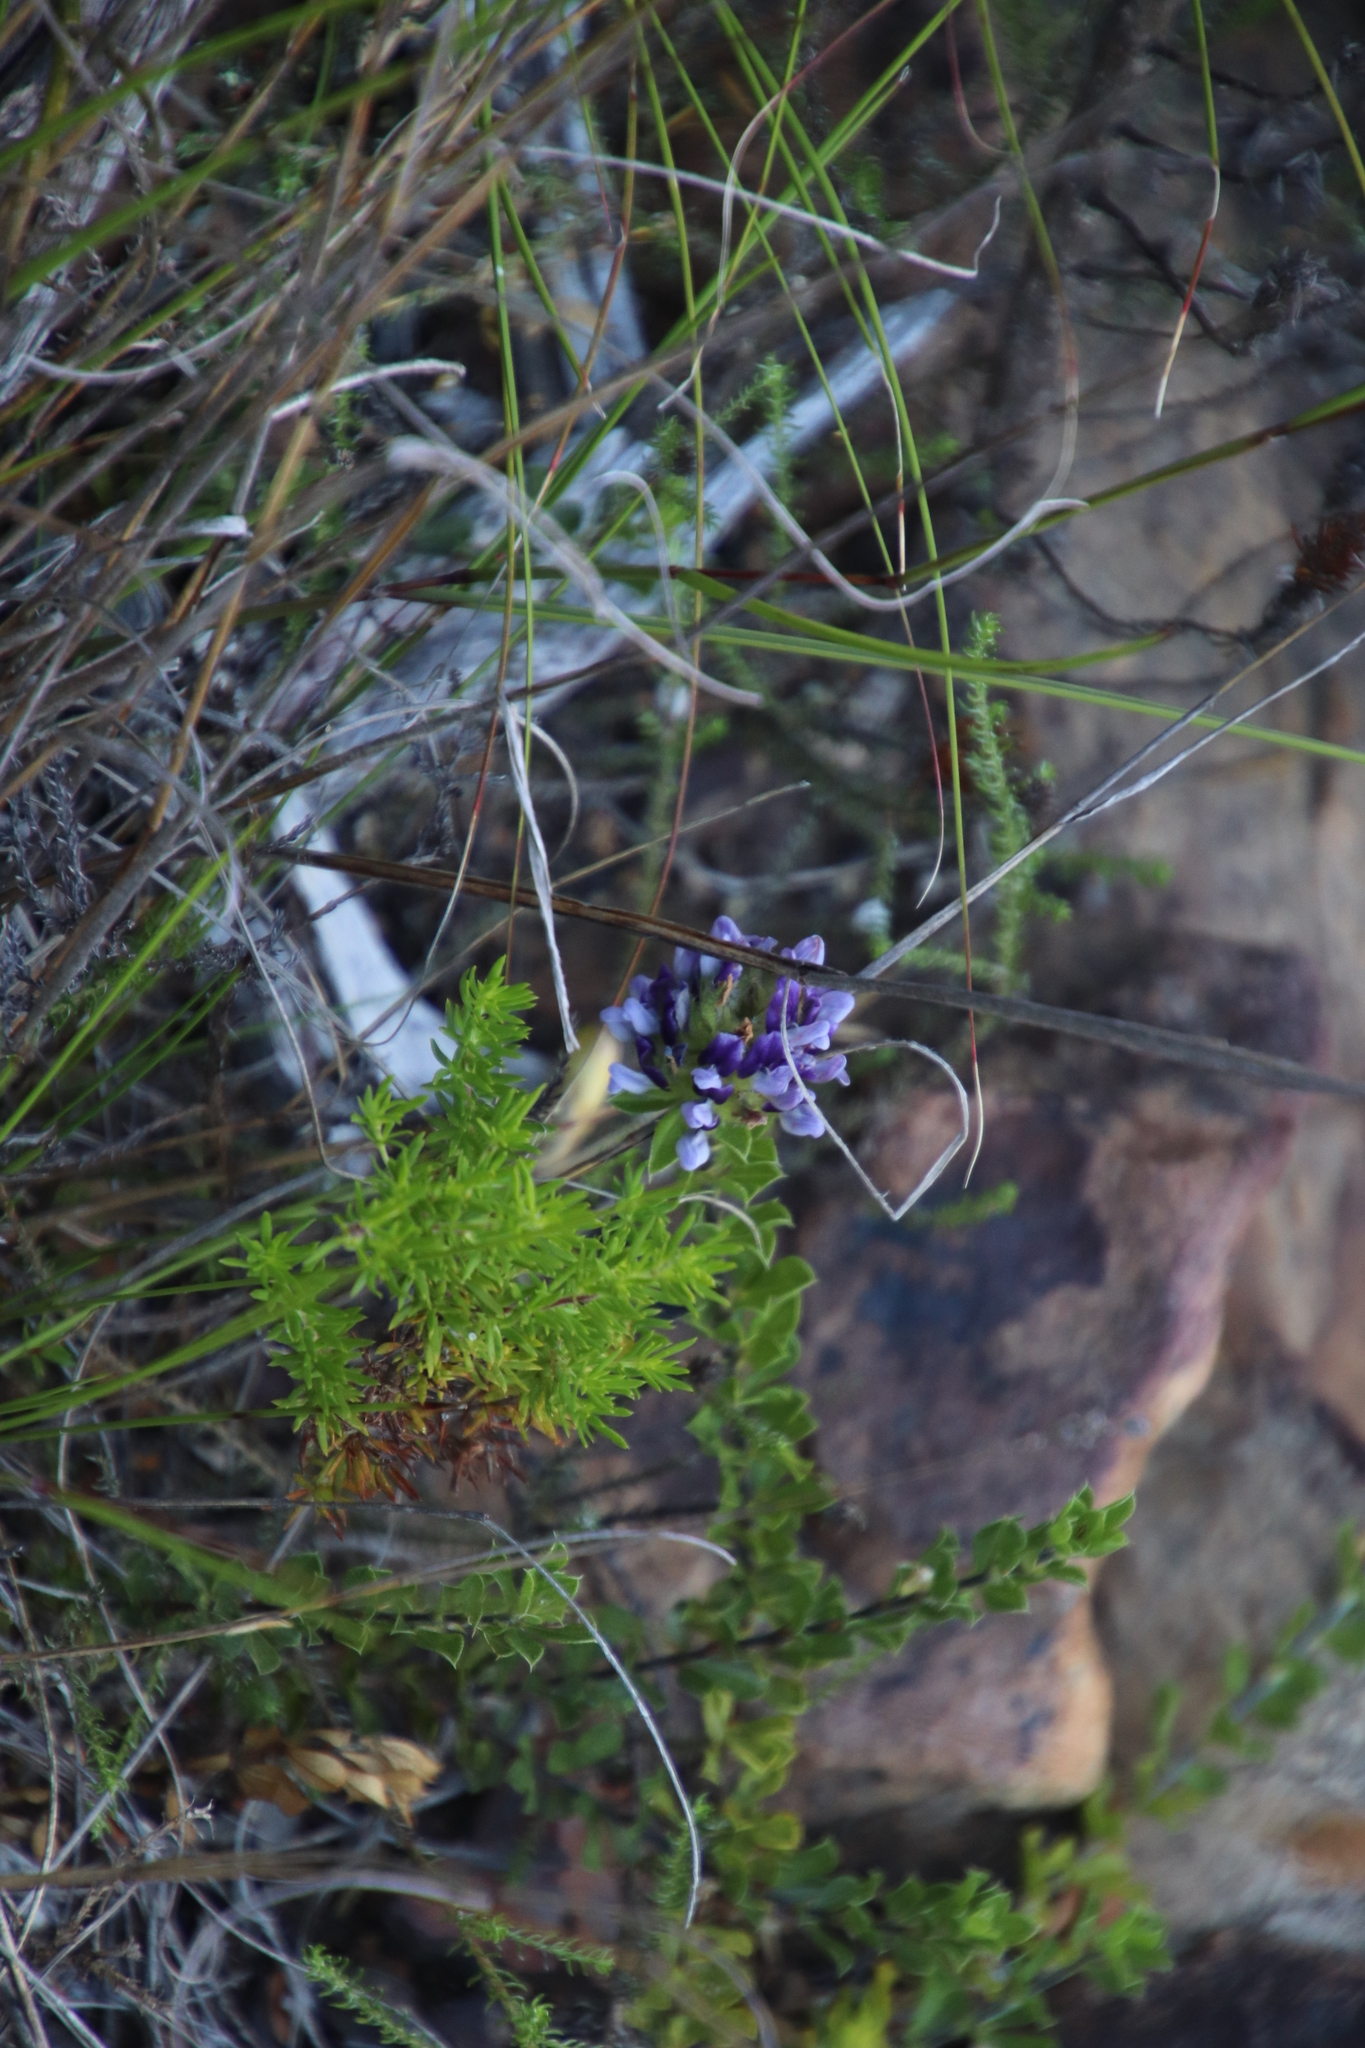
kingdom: Plantae
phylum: Tracheophyta
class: Magnoliopsida
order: Fabales
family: Fabaceae
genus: Psoralea
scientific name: Psoralea bracteolata
